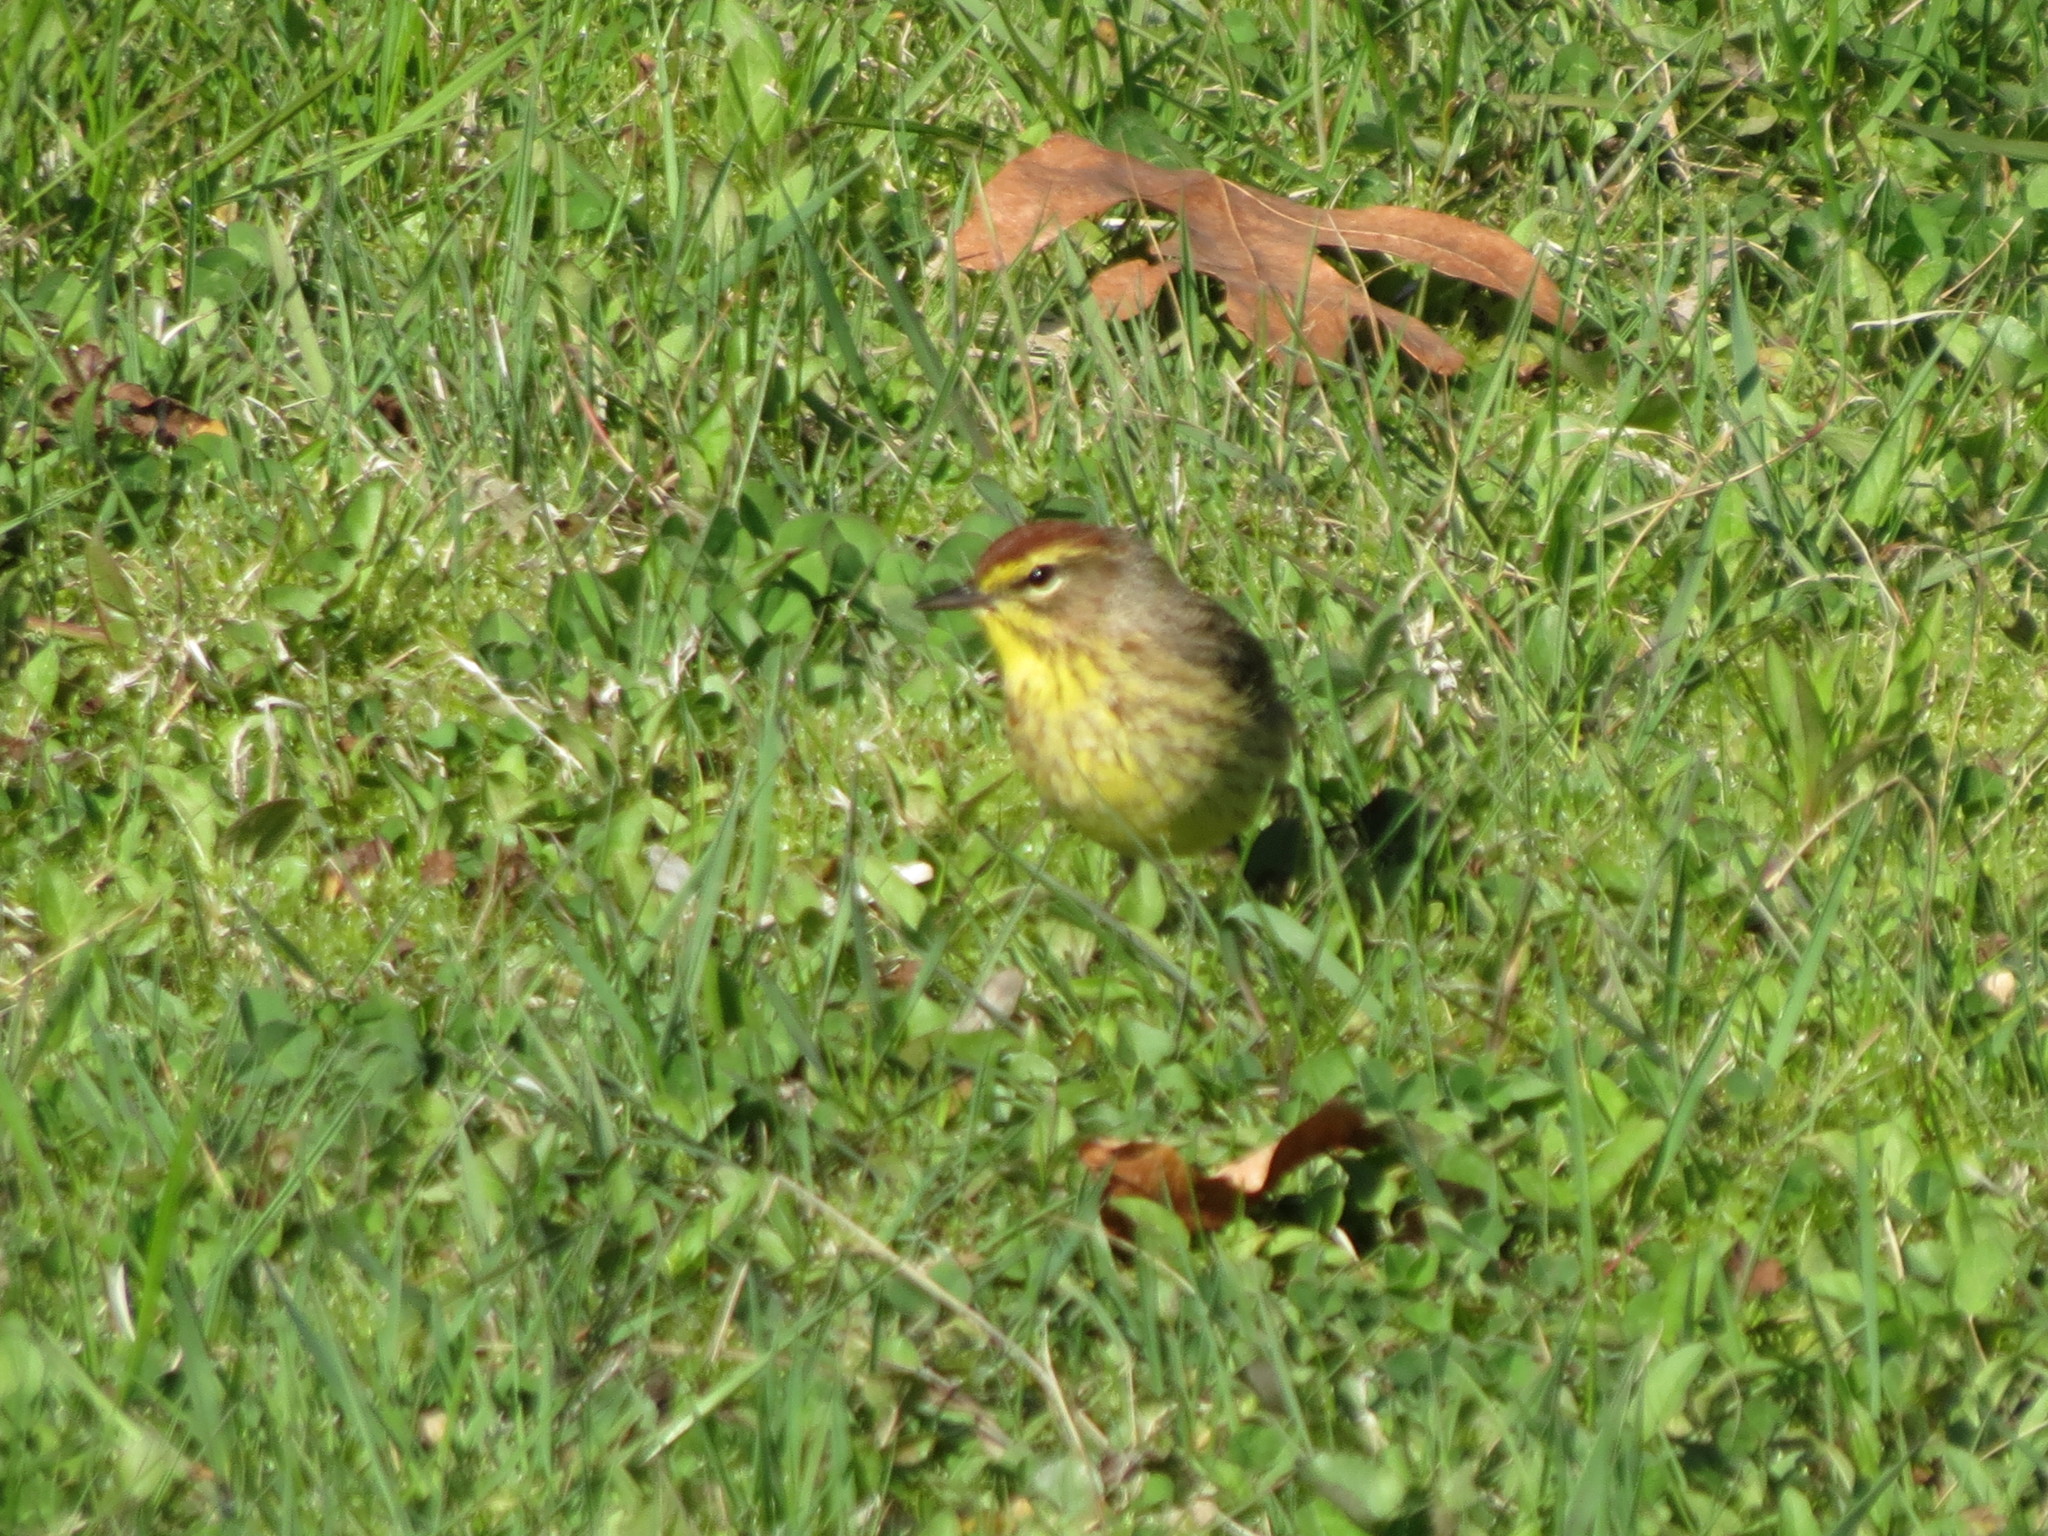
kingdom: Animalia
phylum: Chordata
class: Aves
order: Passeriformes
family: Parulidae
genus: Setophaga
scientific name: Setophaga palmarum
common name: Palm warbler
